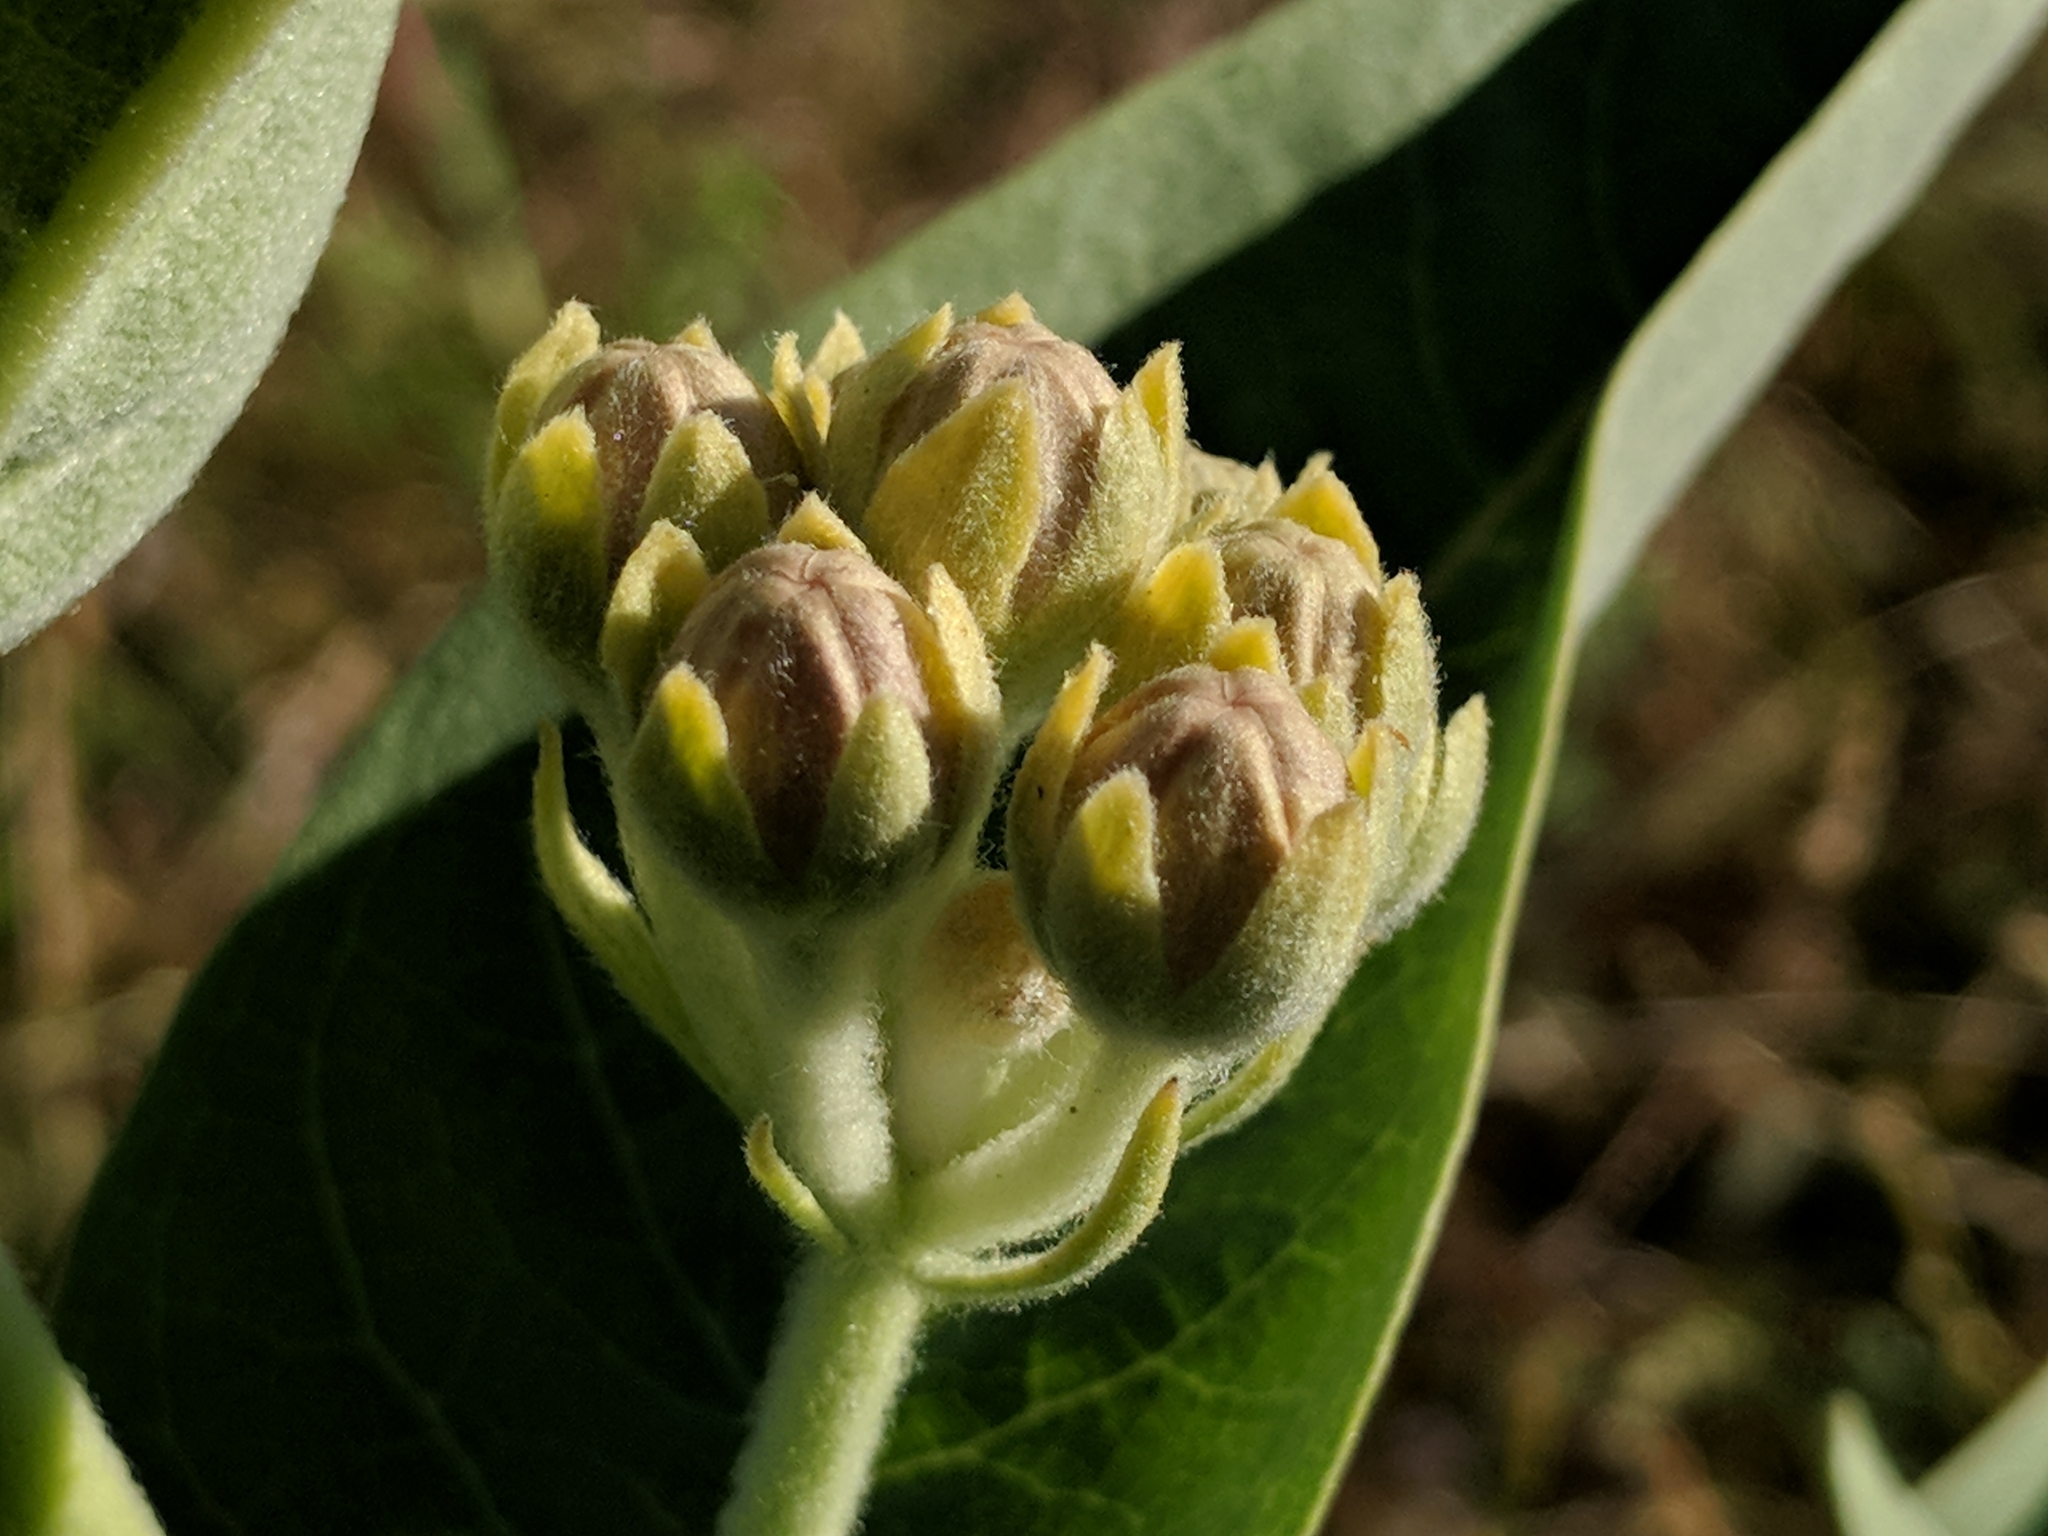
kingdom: Plantae
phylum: Tracheophyta
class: Magnoliopsida
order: Gentianales
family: Apocynaceae
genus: Asclepias
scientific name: Asclepias speciosa
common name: Showy milkweed
